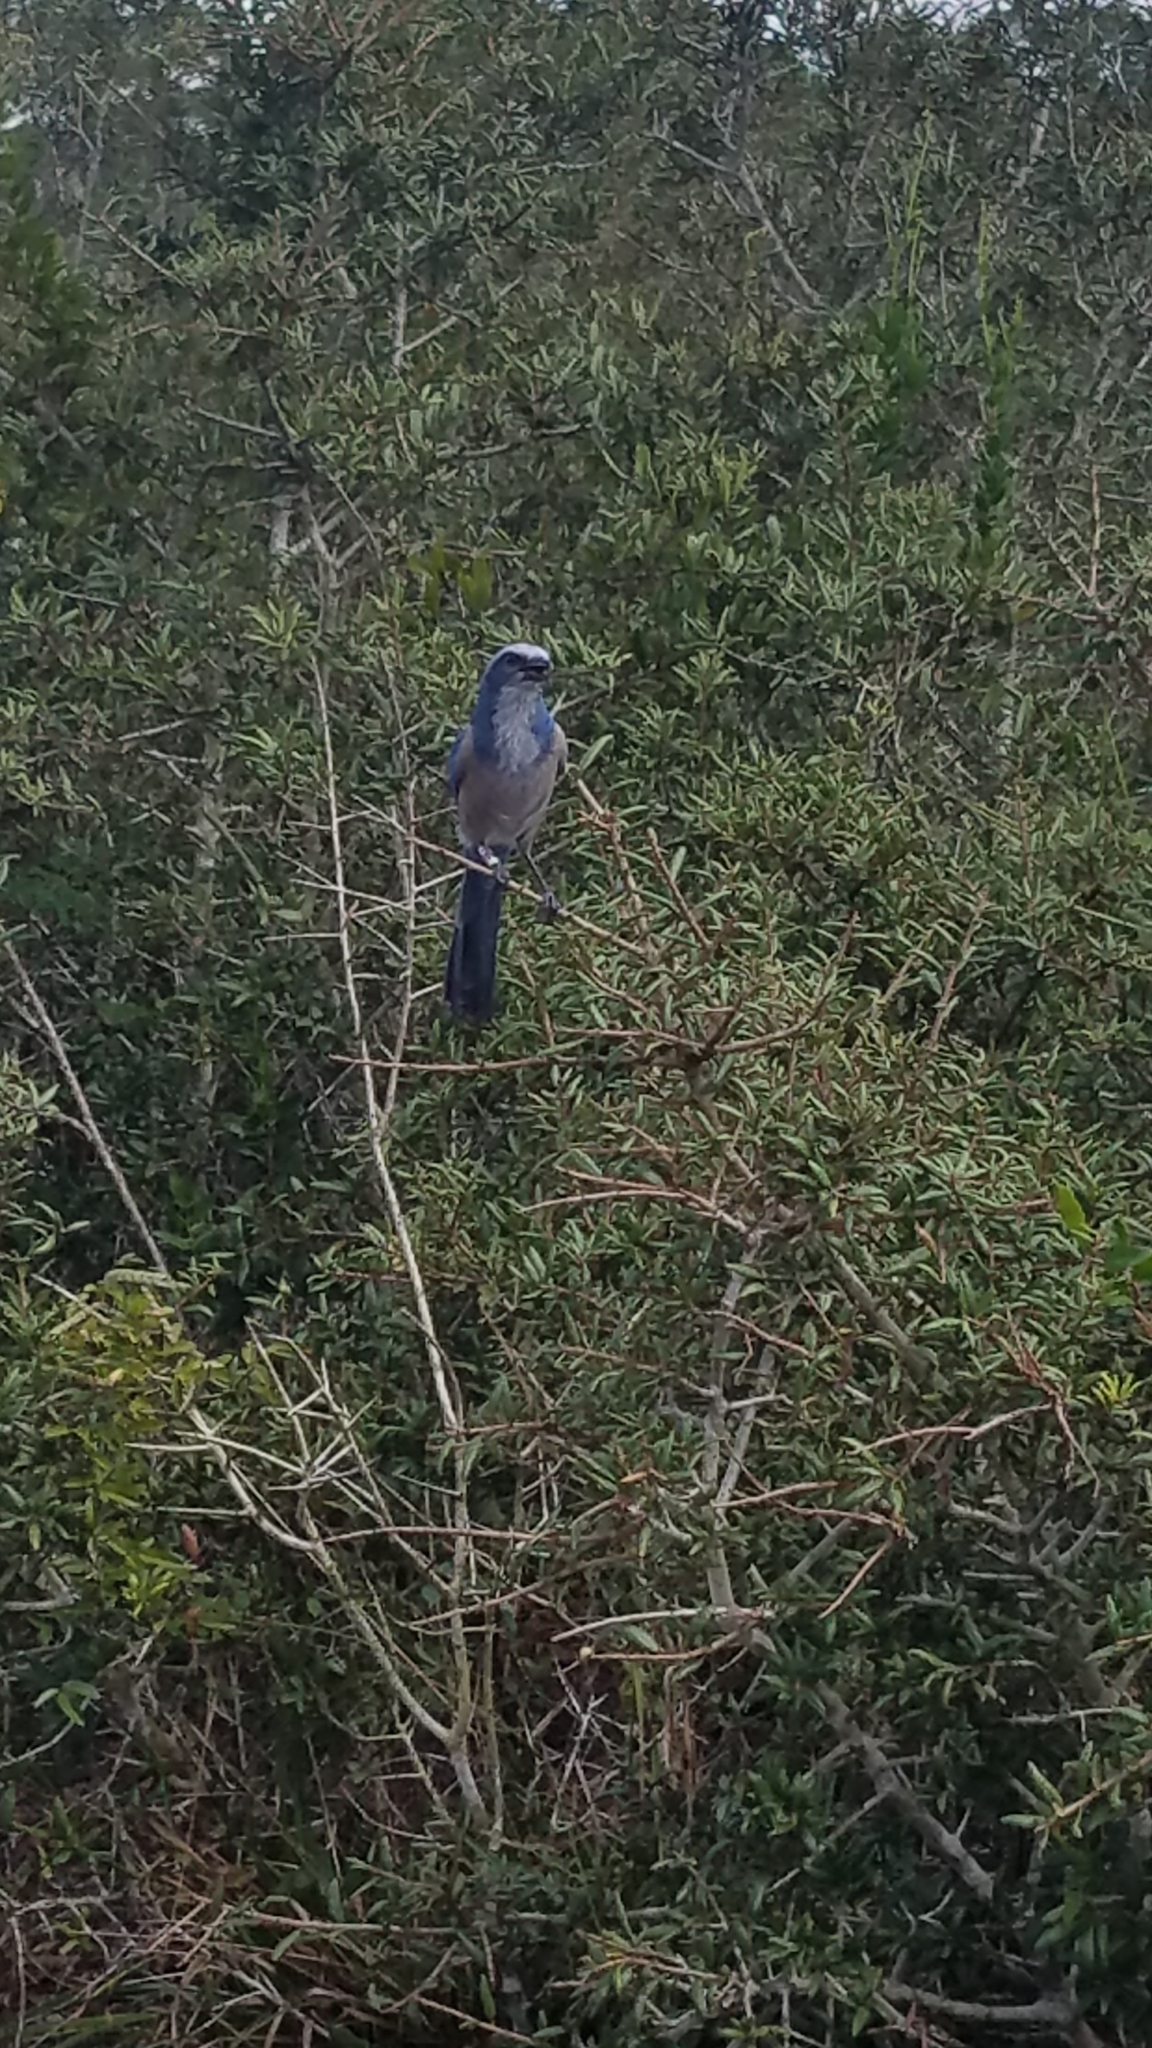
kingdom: Animalia
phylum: Chordata
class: Aves
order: Passeriformes
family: Corvidae
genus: Aphelocoma
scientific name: Aphelocoma coerulescens
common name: Florida scrub jay
